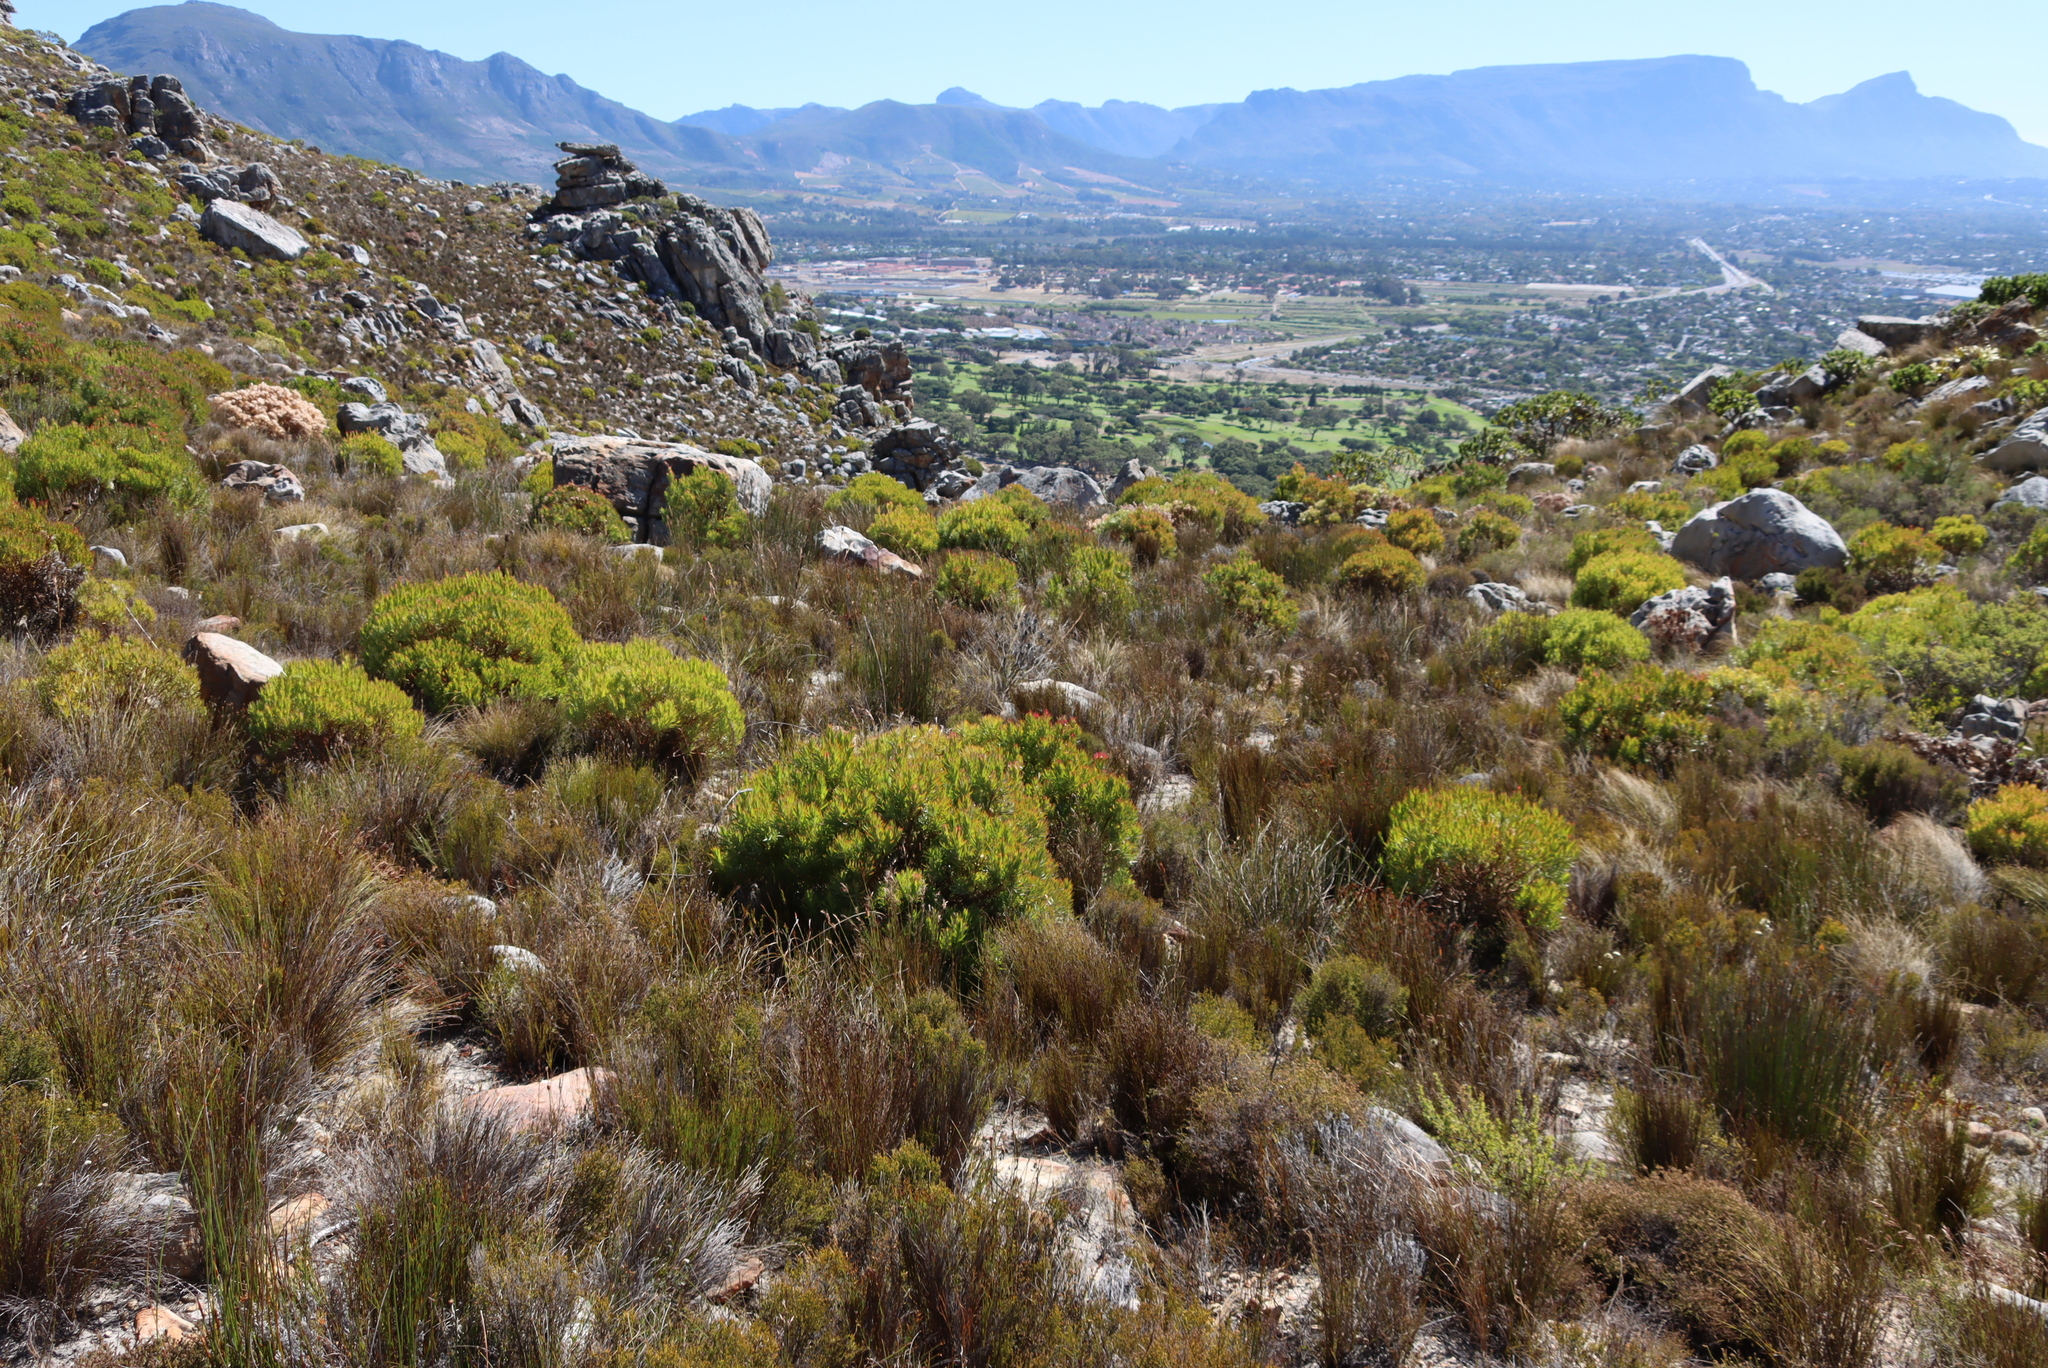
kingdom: Plantae
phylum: Tracheophyta
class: Magnoliopsida
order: Proteales
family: Proteaceae
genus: Leucadendron
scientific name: Leucadendron xanthoconus
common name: Sickle-leaf conebush
